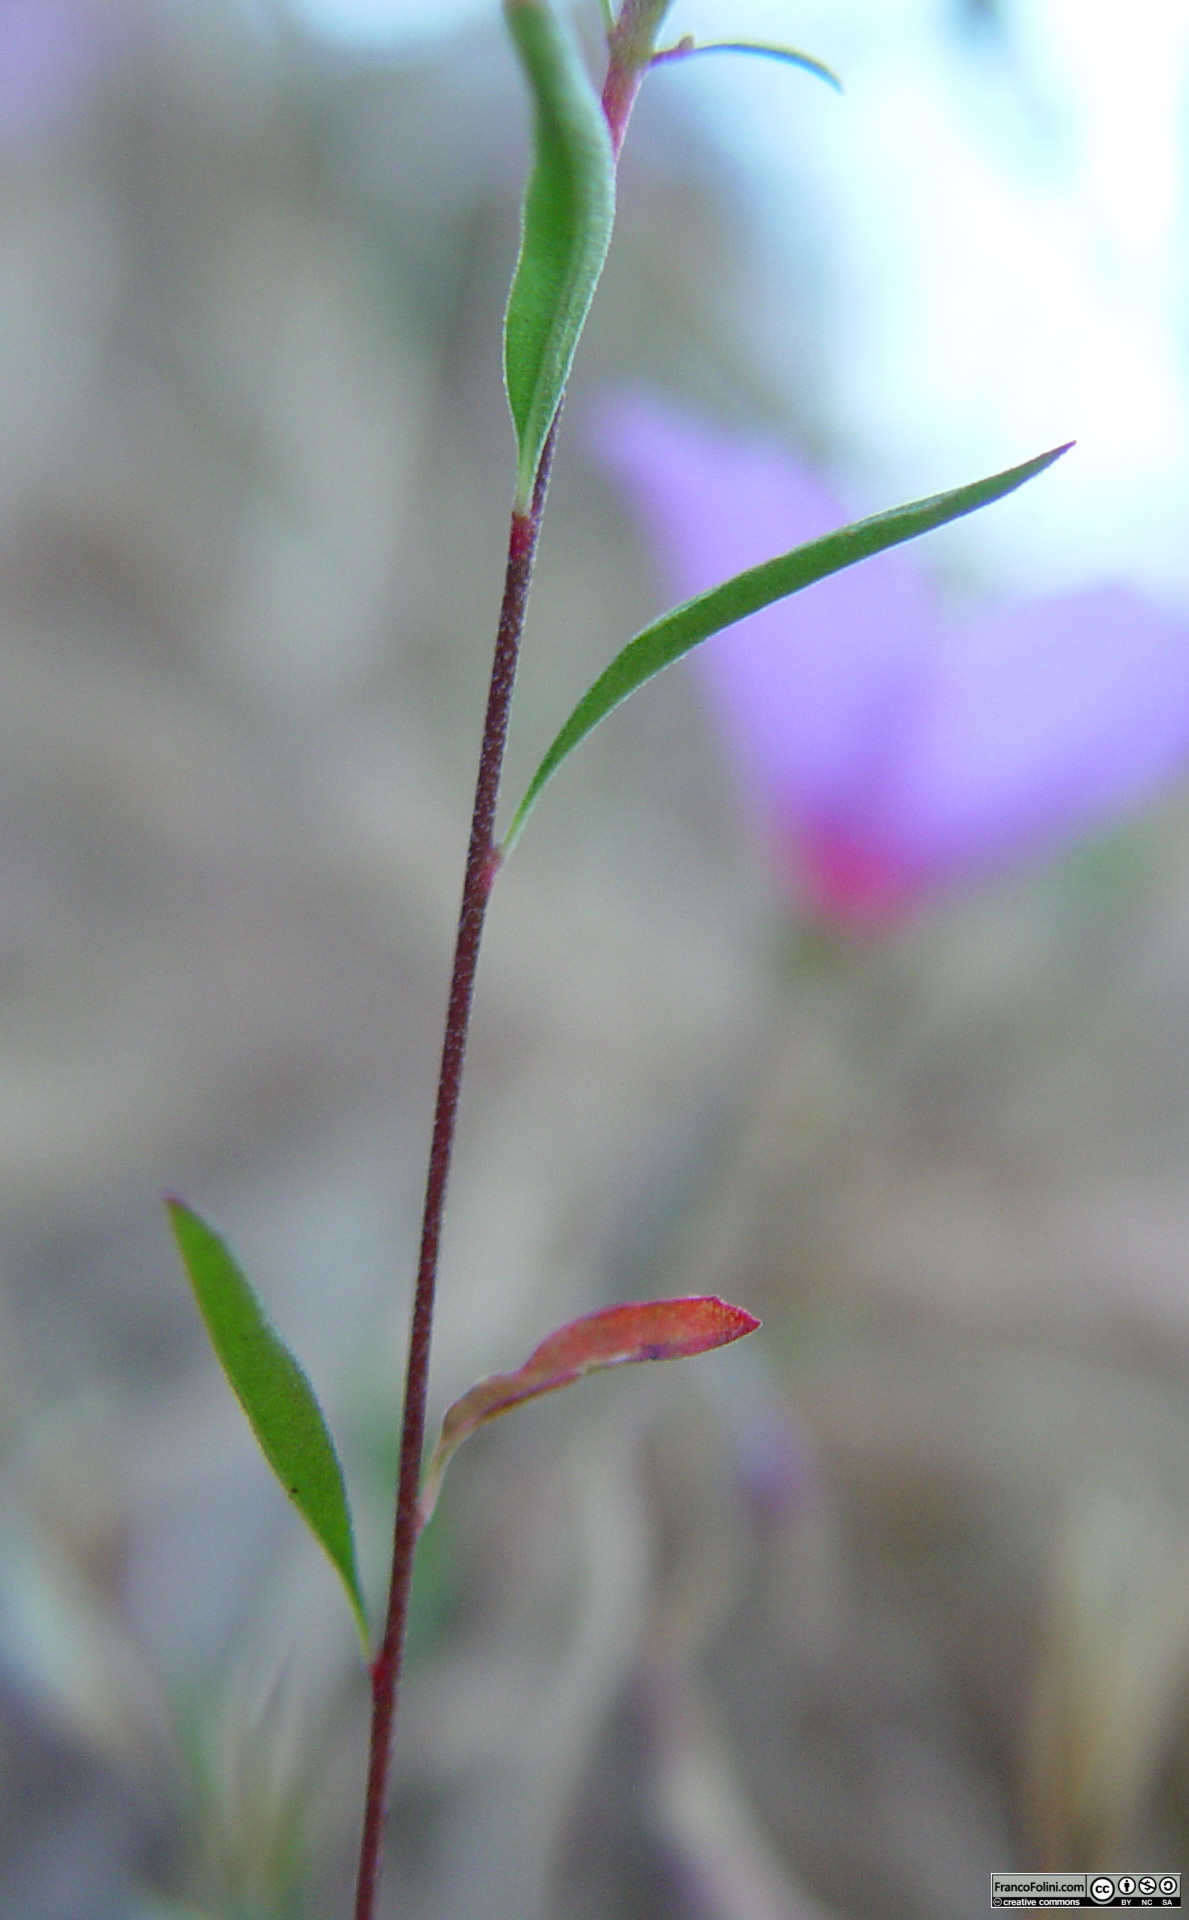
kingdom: Plantae
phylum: Tracheophyta
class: Magnoliopsida
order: Myrtales
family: Onagraceae
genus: Clarkia
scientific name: Clarkia rubicunda
